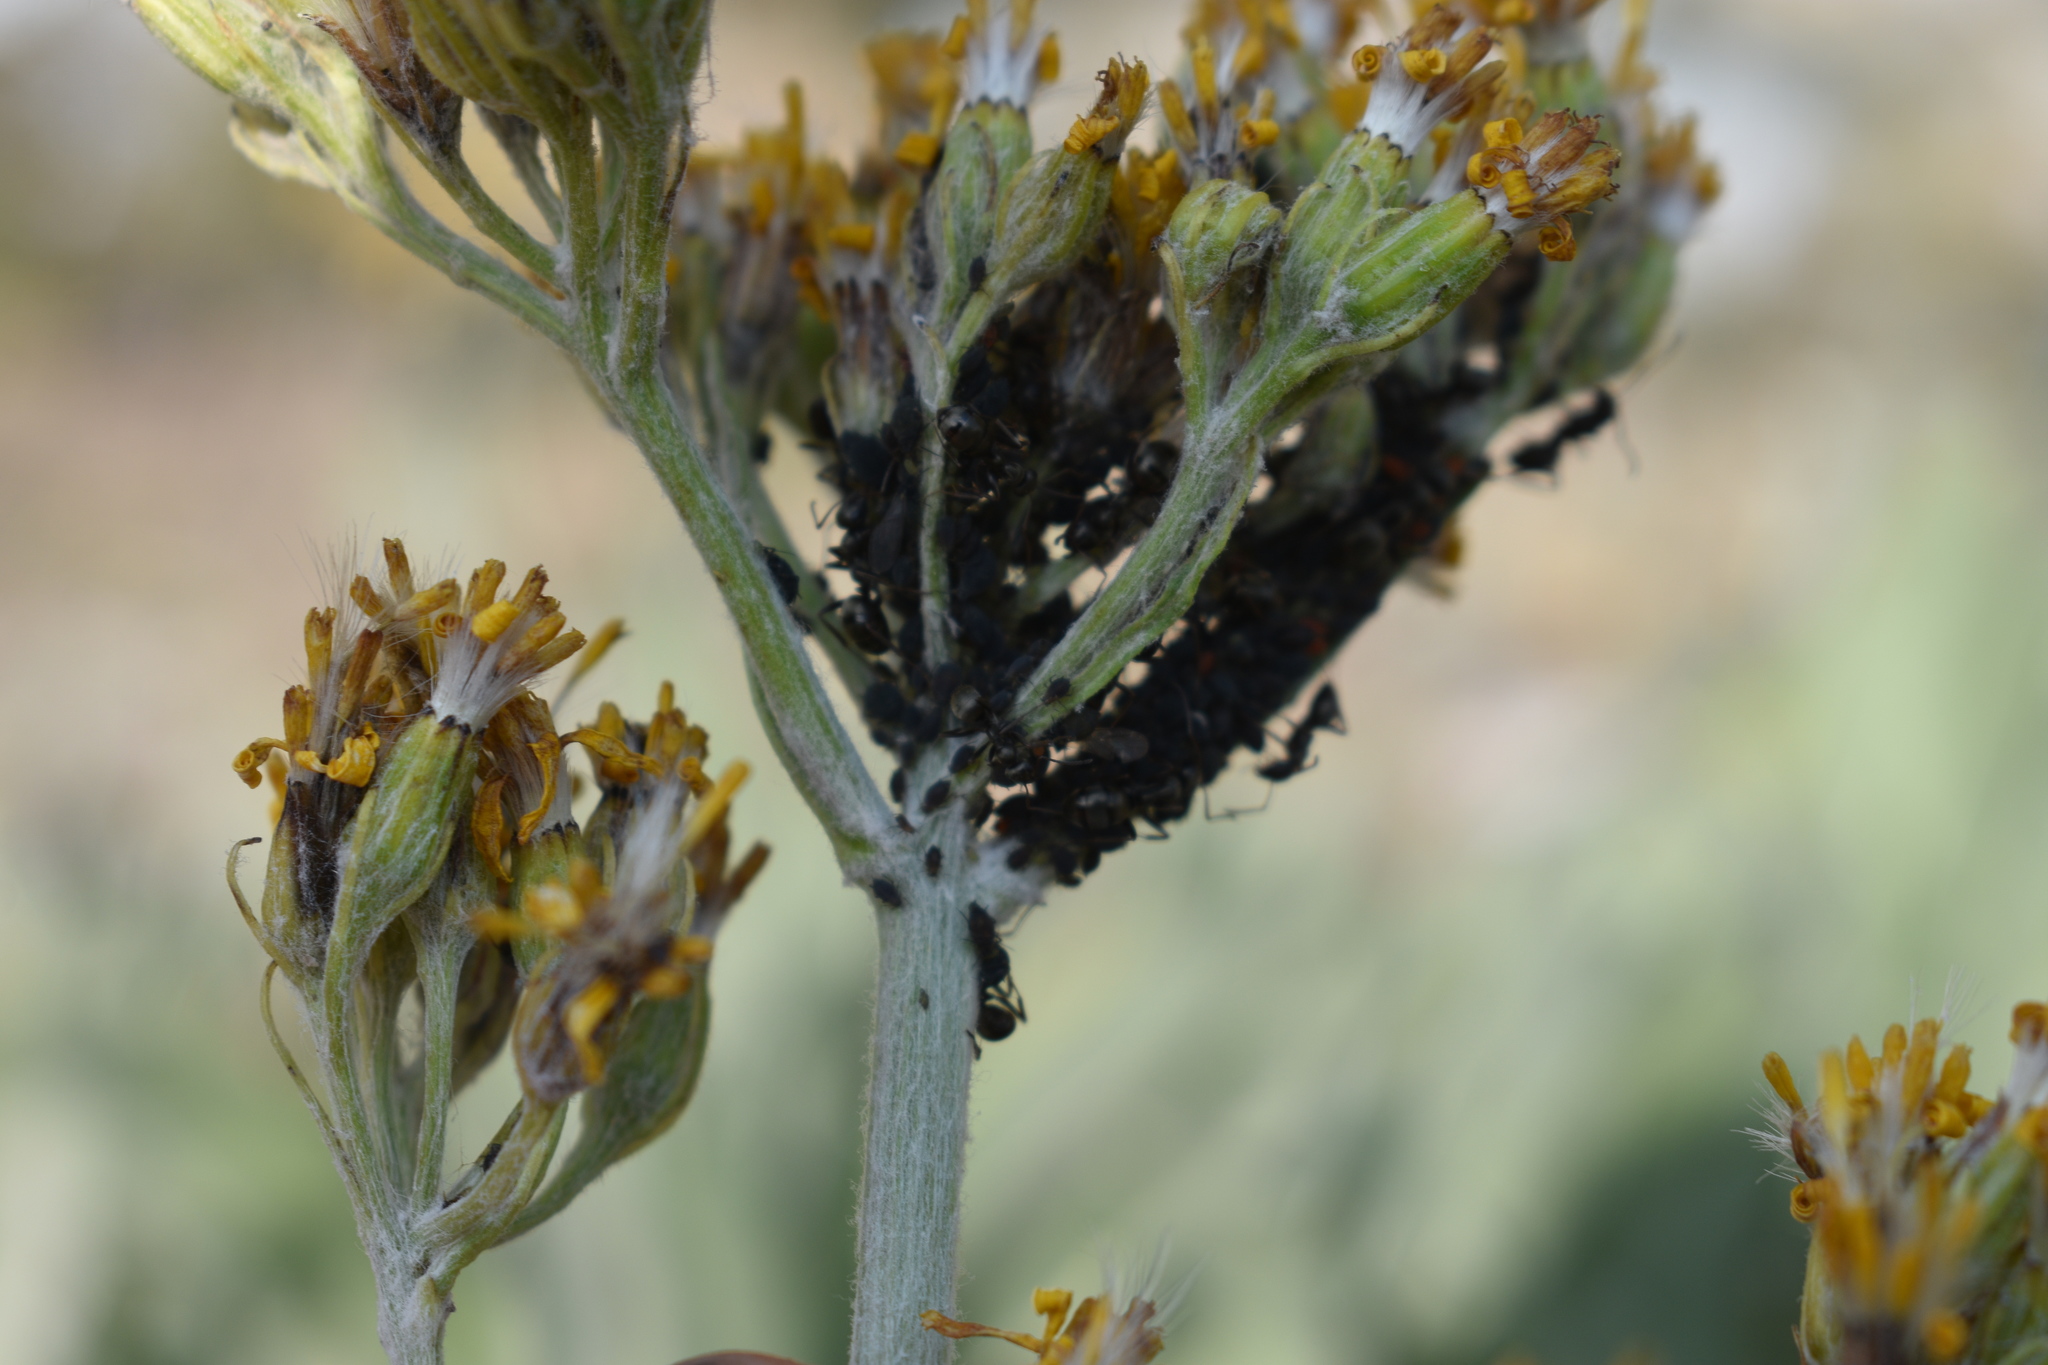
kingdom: Plantae
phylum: Tracheophyta
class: Magnoliopsida
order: Asterales
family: Asteraceae
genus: Senecio
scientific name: Senecio atratus
